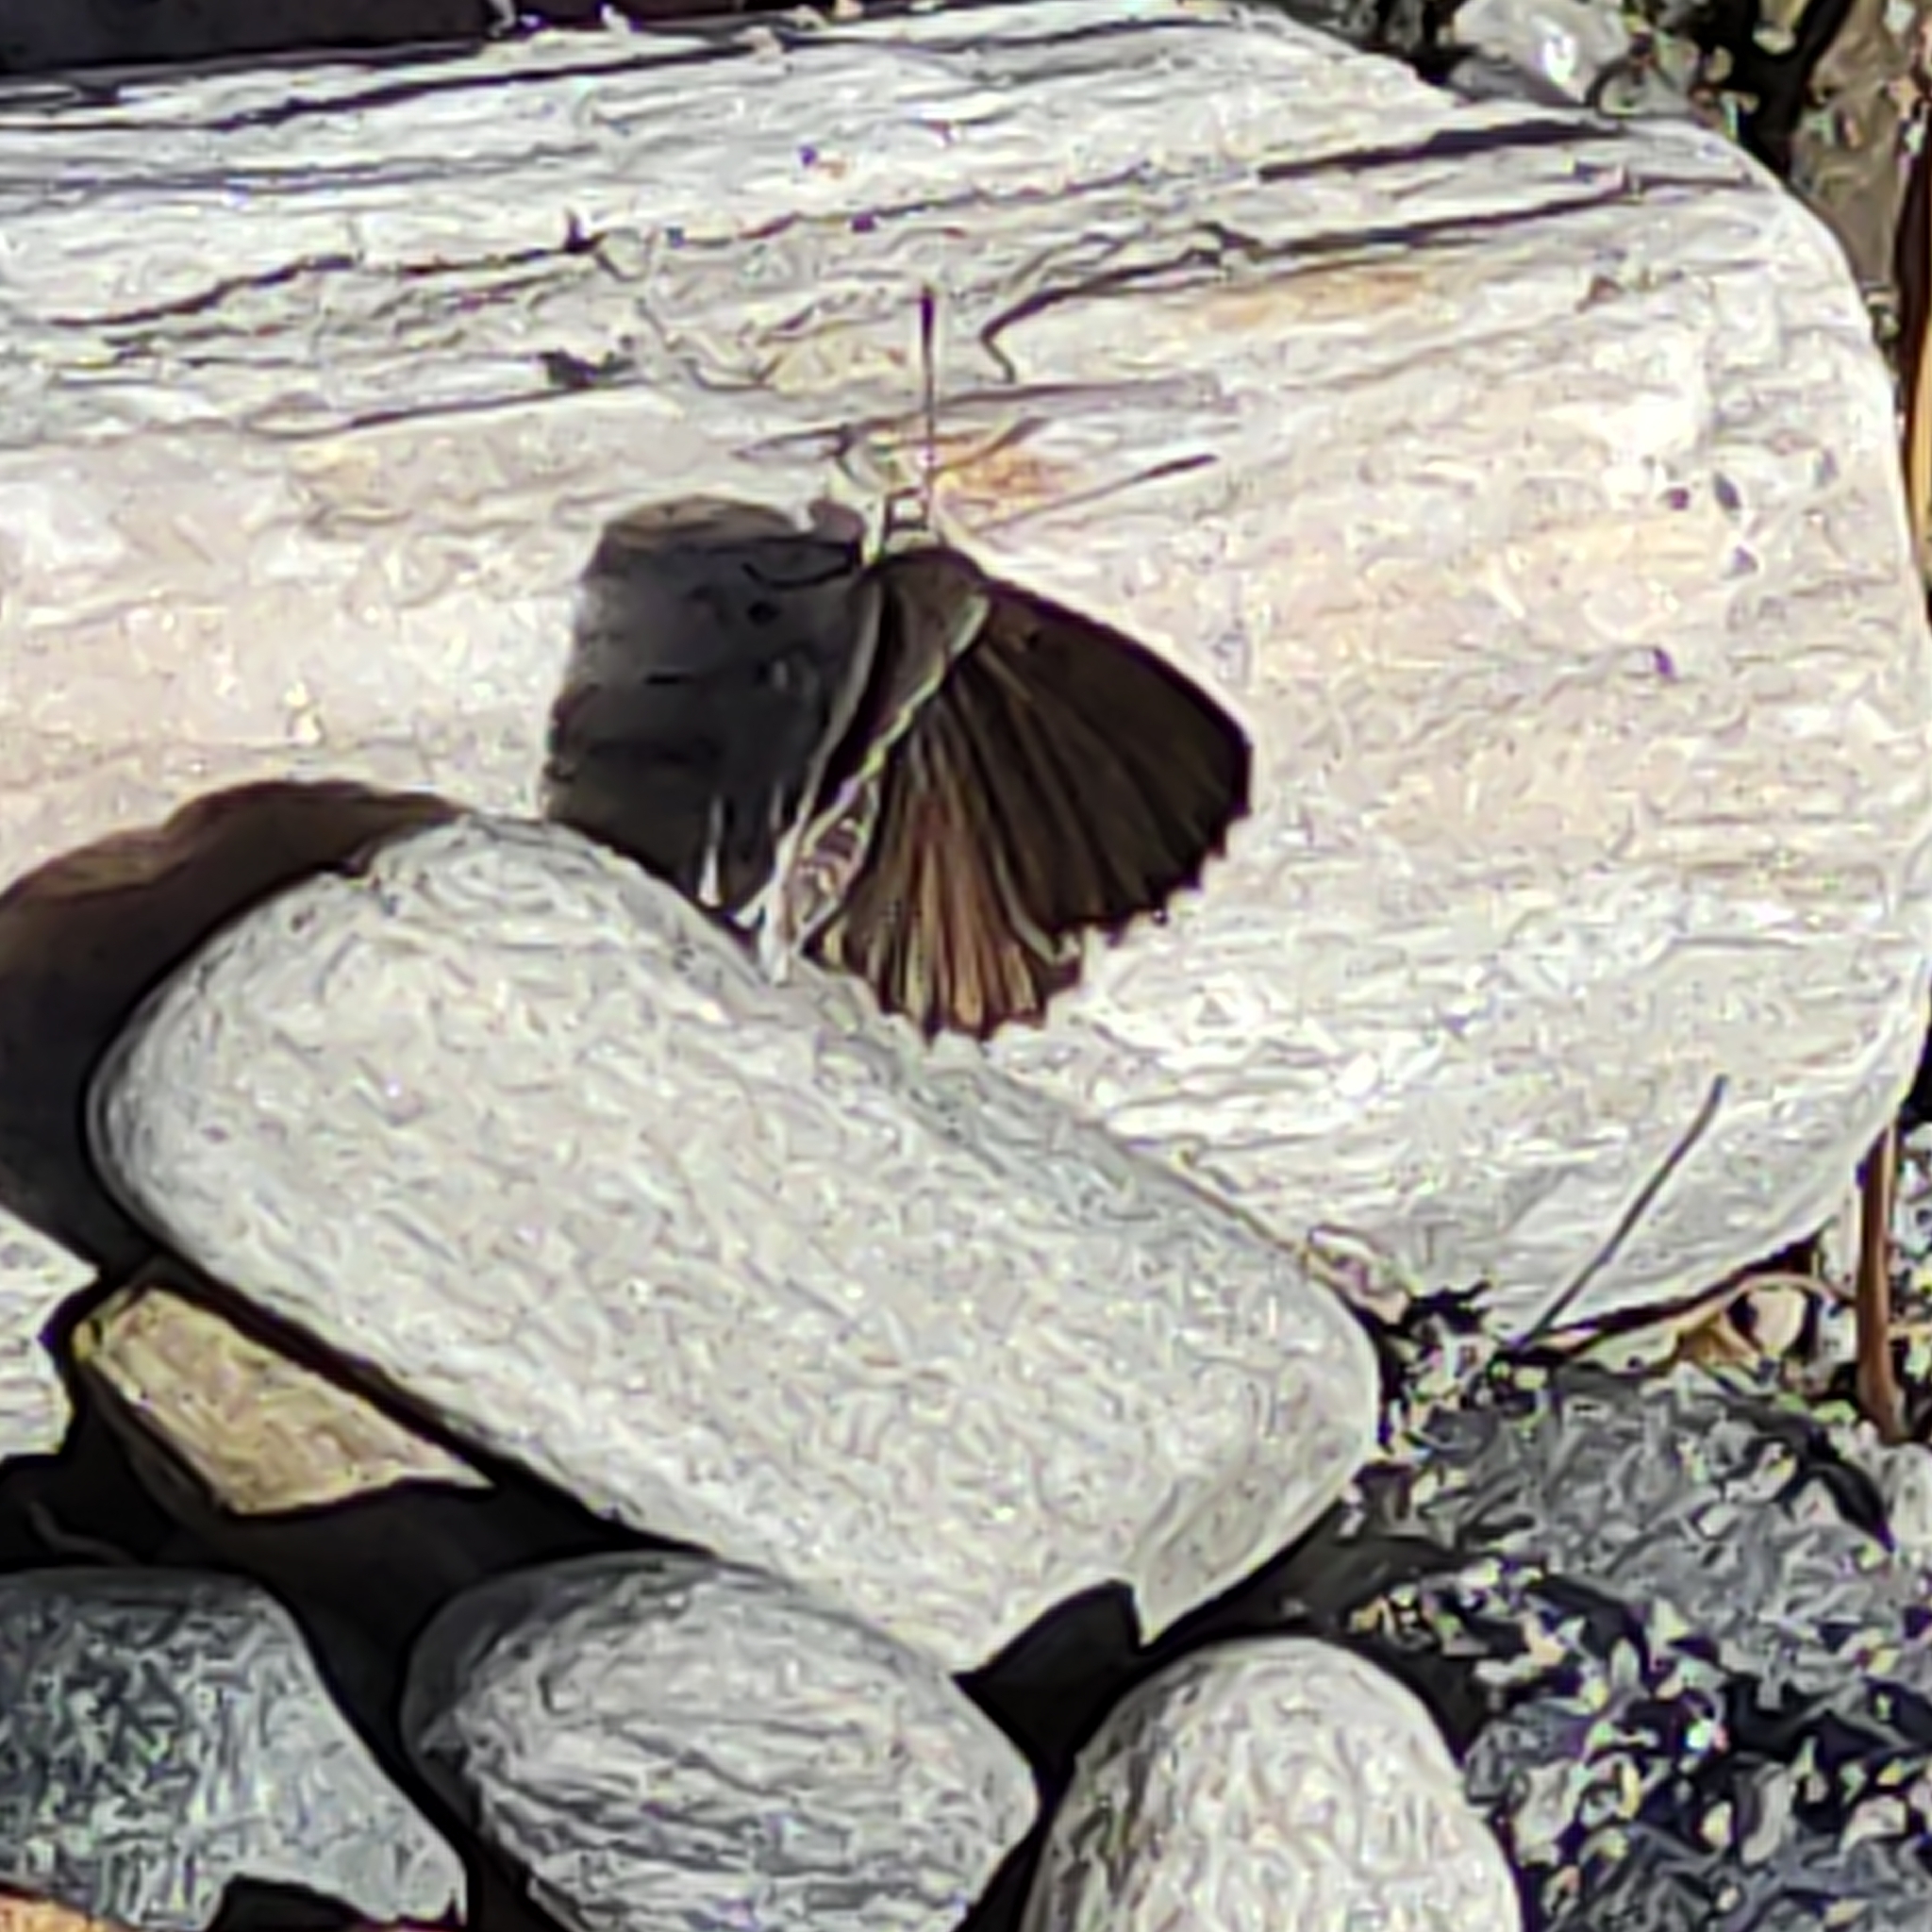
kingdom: Animalia
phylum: Arthropoda
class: Insecta
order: Lepidoptera
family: Lycaenidae
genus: Zizina
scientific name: Zizina oxleyi
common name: Southern blue
